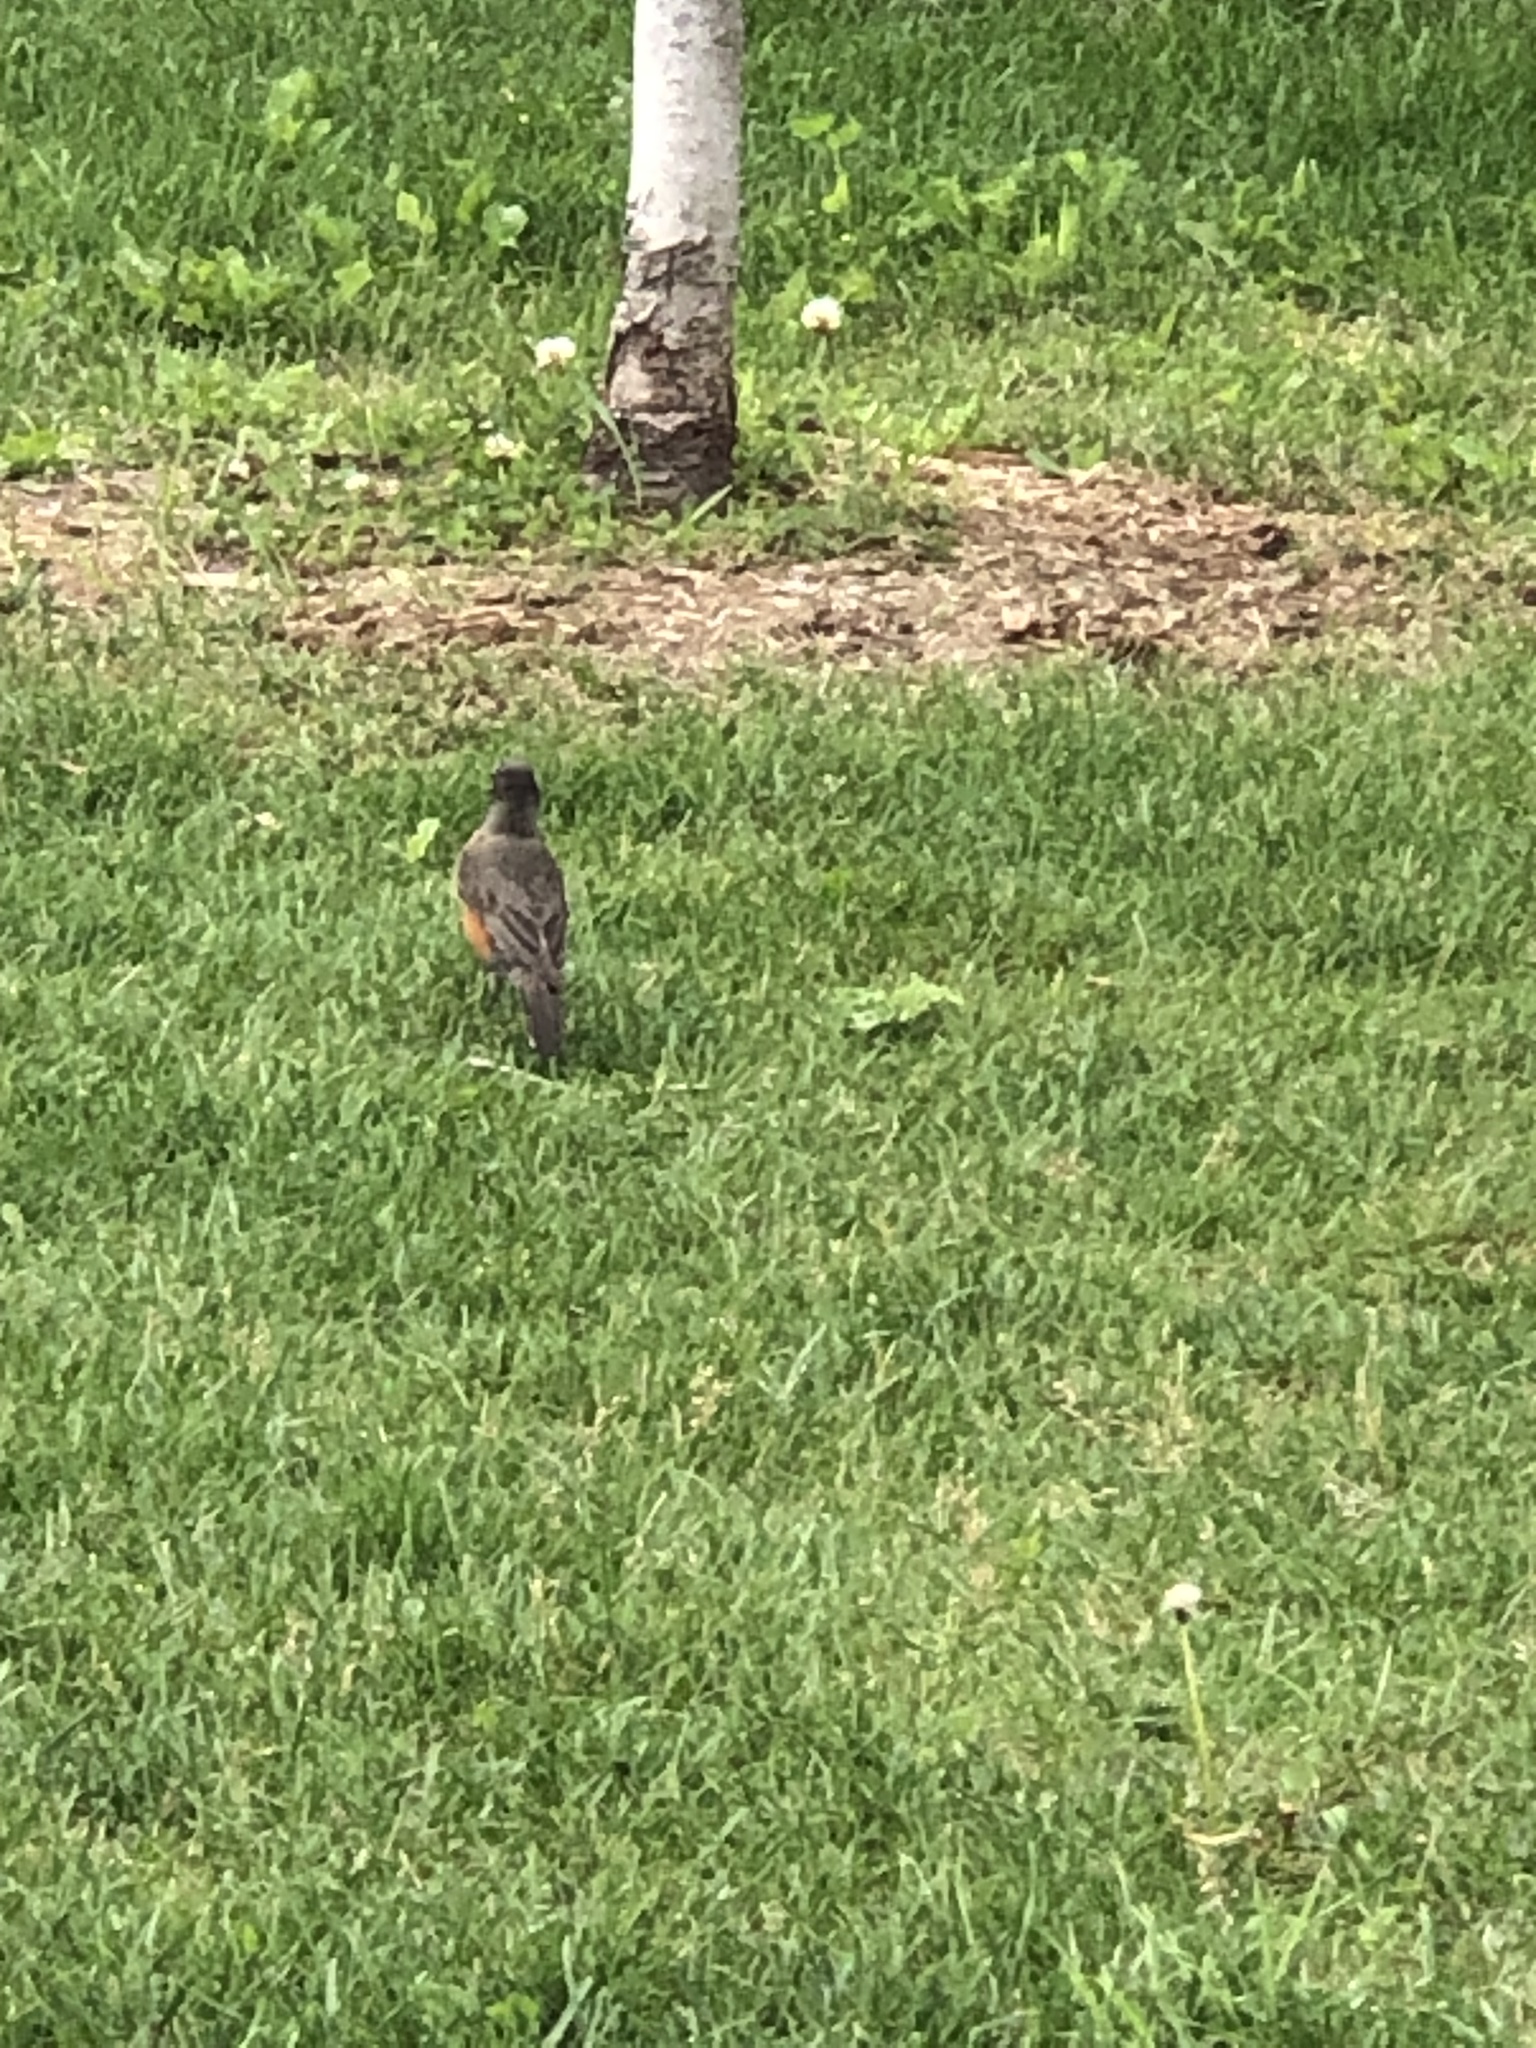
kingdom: Animalia
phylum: Chordata
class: Aves
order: Passeriformes
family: Turdidae
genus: Turdus
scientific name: Turdus migratorius
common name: American robin
